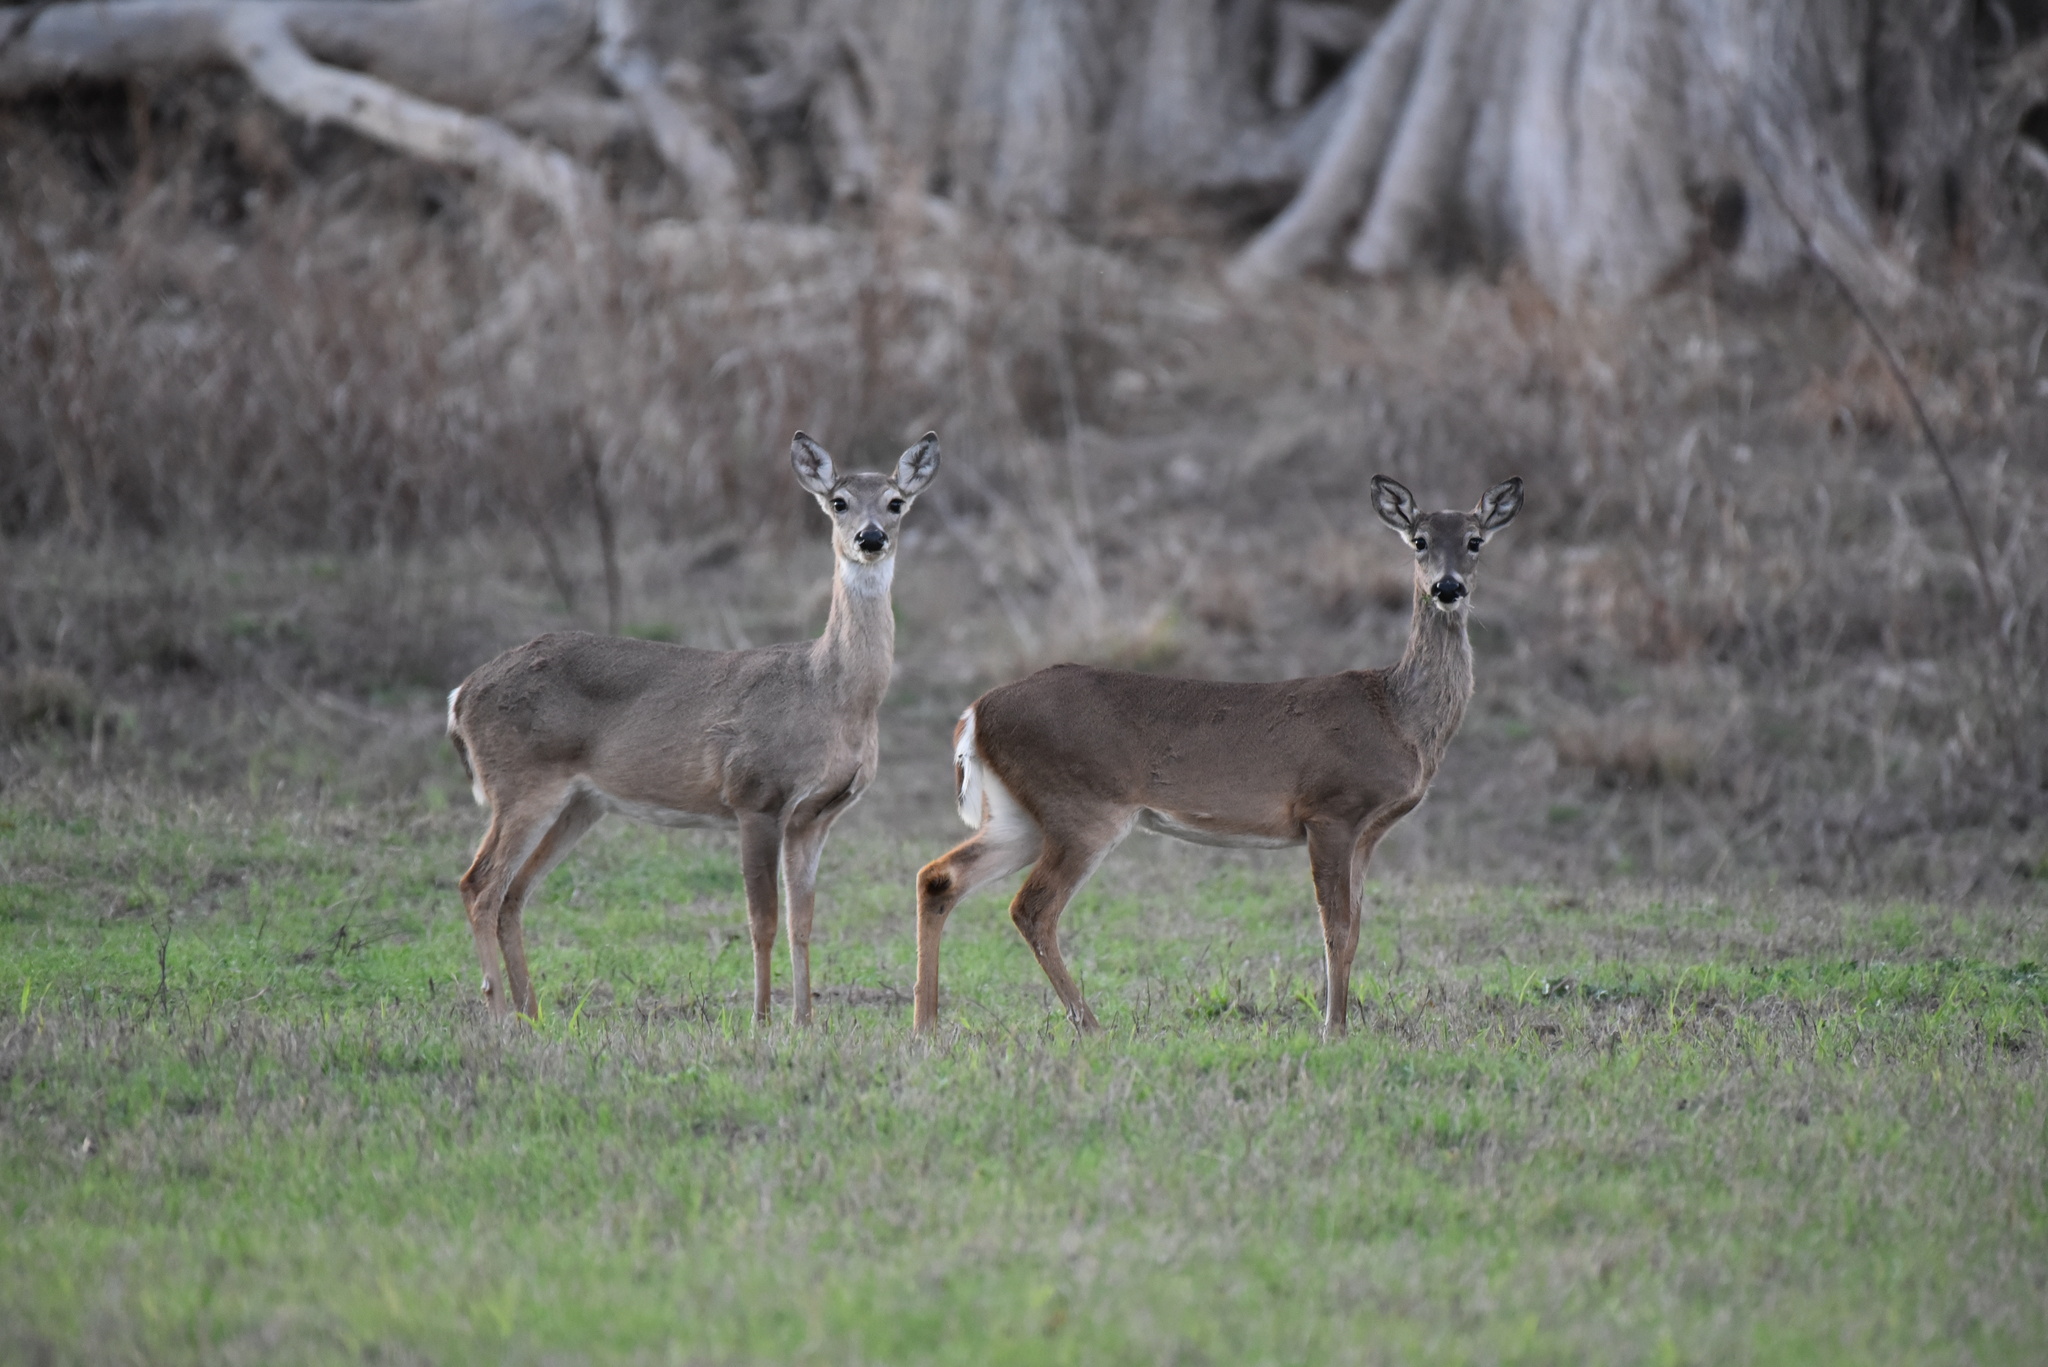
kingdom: Animalia
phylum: Chordata
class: Mammalia
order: Artiodactyla
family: Cervidae
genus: Odocoileus
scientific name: Odocoileus virginianus
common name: White-tailed deer
